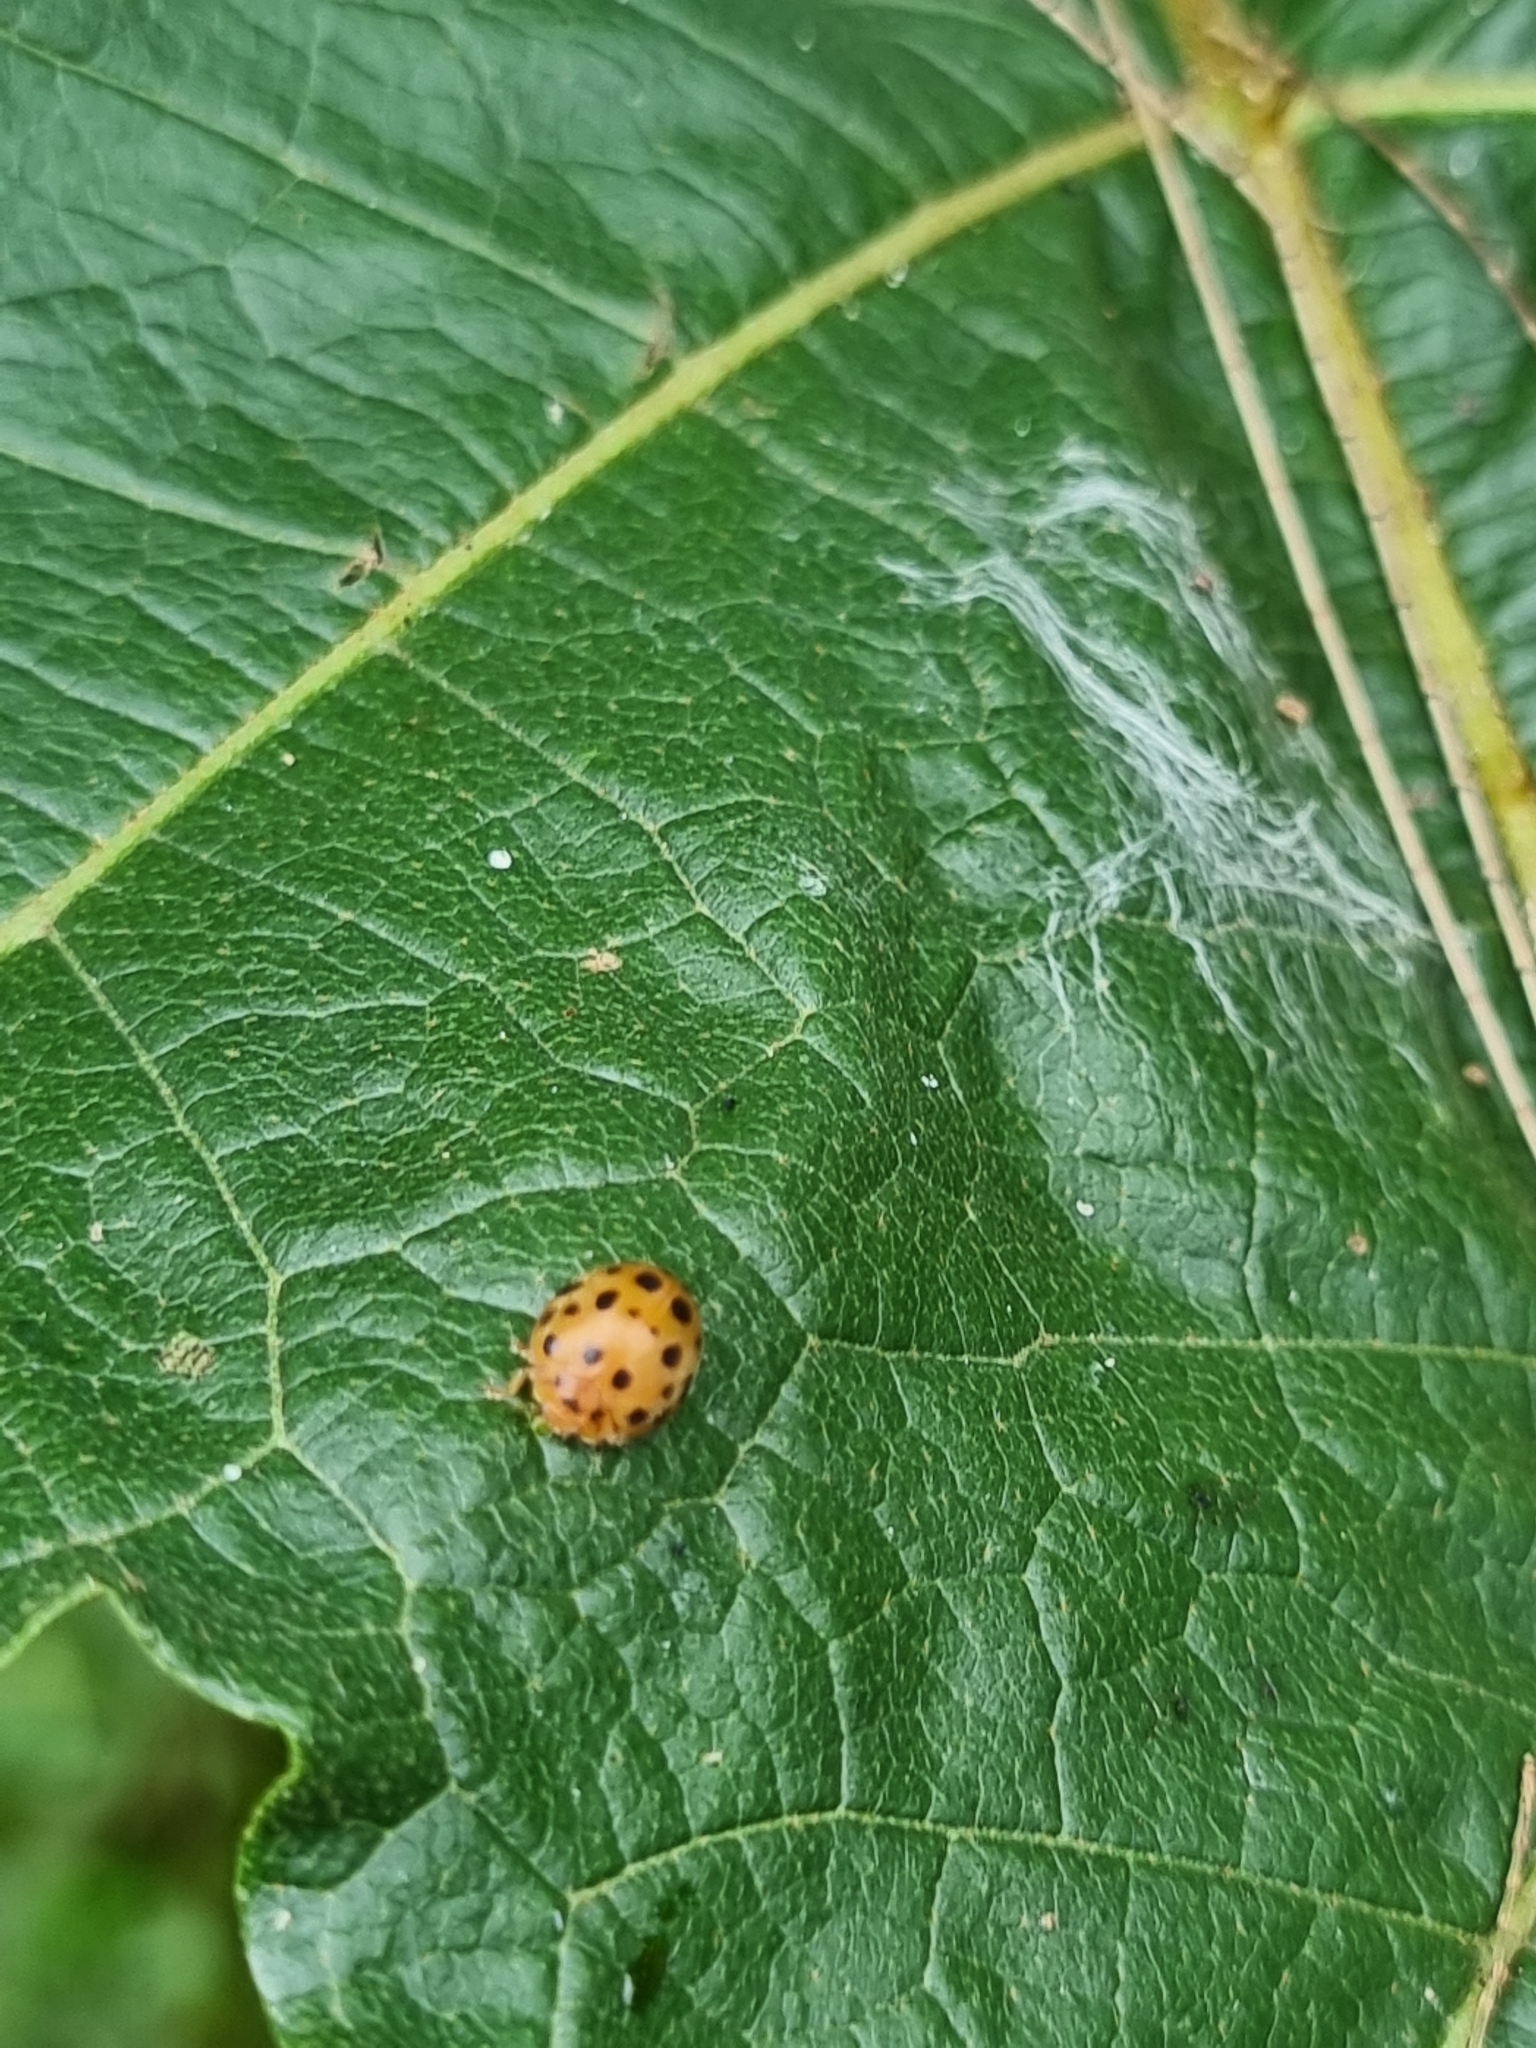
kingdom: Animalia
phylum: Arthropoda
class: Insecta
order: Coleoptera
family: Coccinellidae
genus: Henosepilachna
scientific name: Henosepilachna vigintioctopunctata
